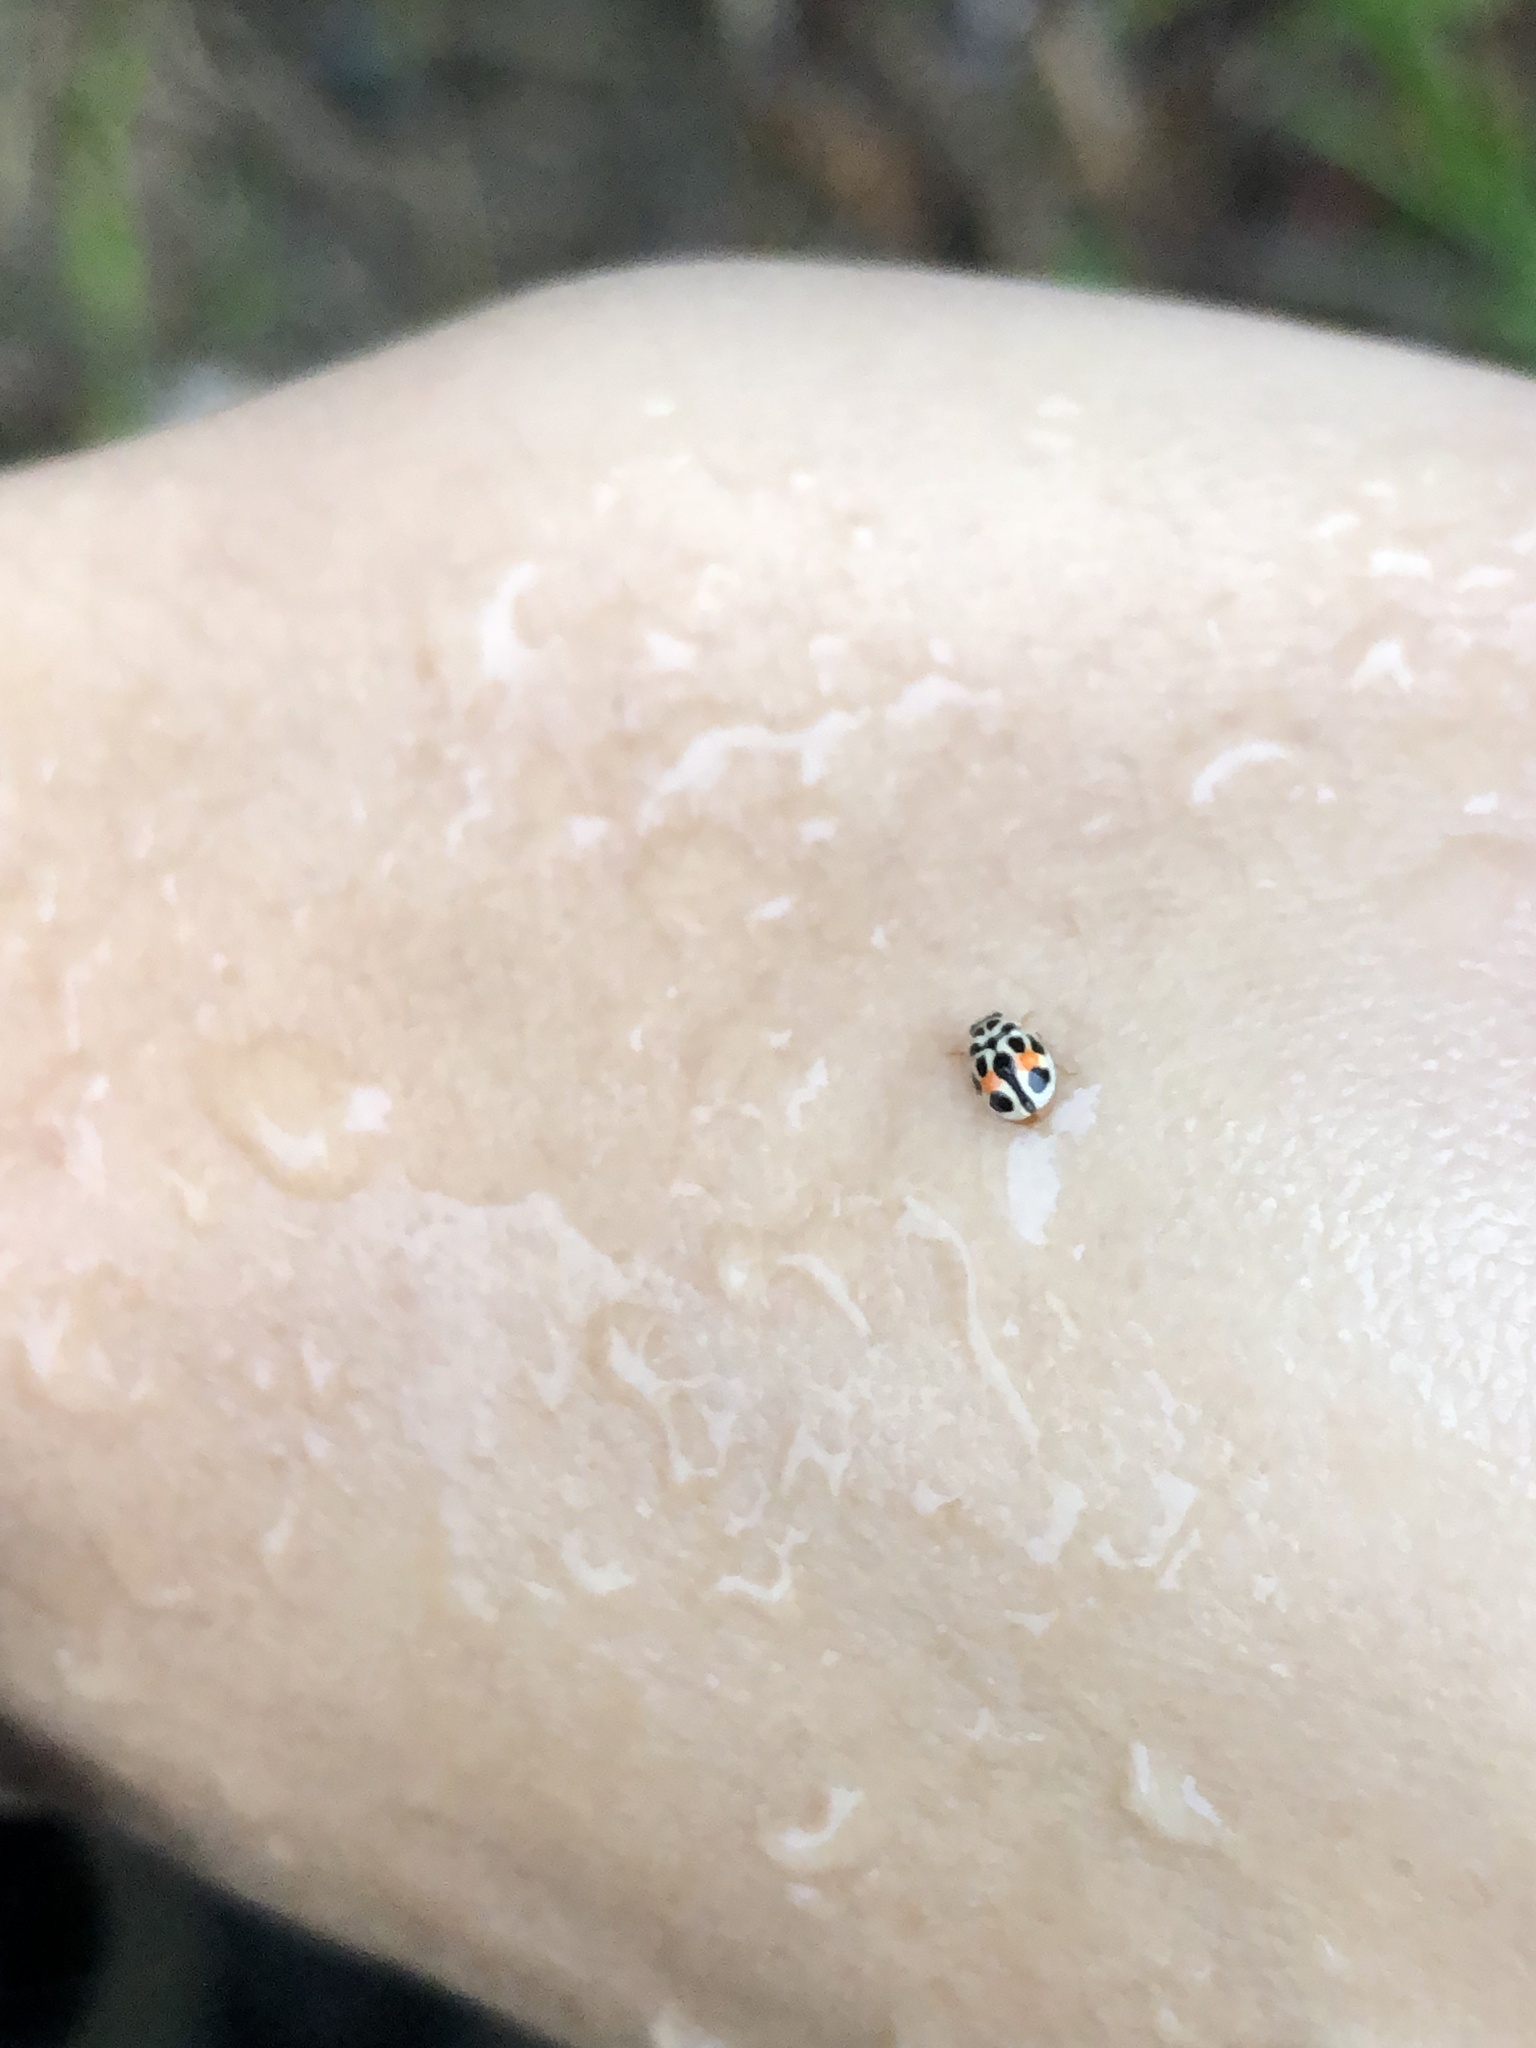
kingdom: Animalia
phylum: Arthropoda
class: Insecta
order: Coleoptera
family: Coccinellidae
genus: Tenuisvalvae
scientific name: Tenuisvalvae
